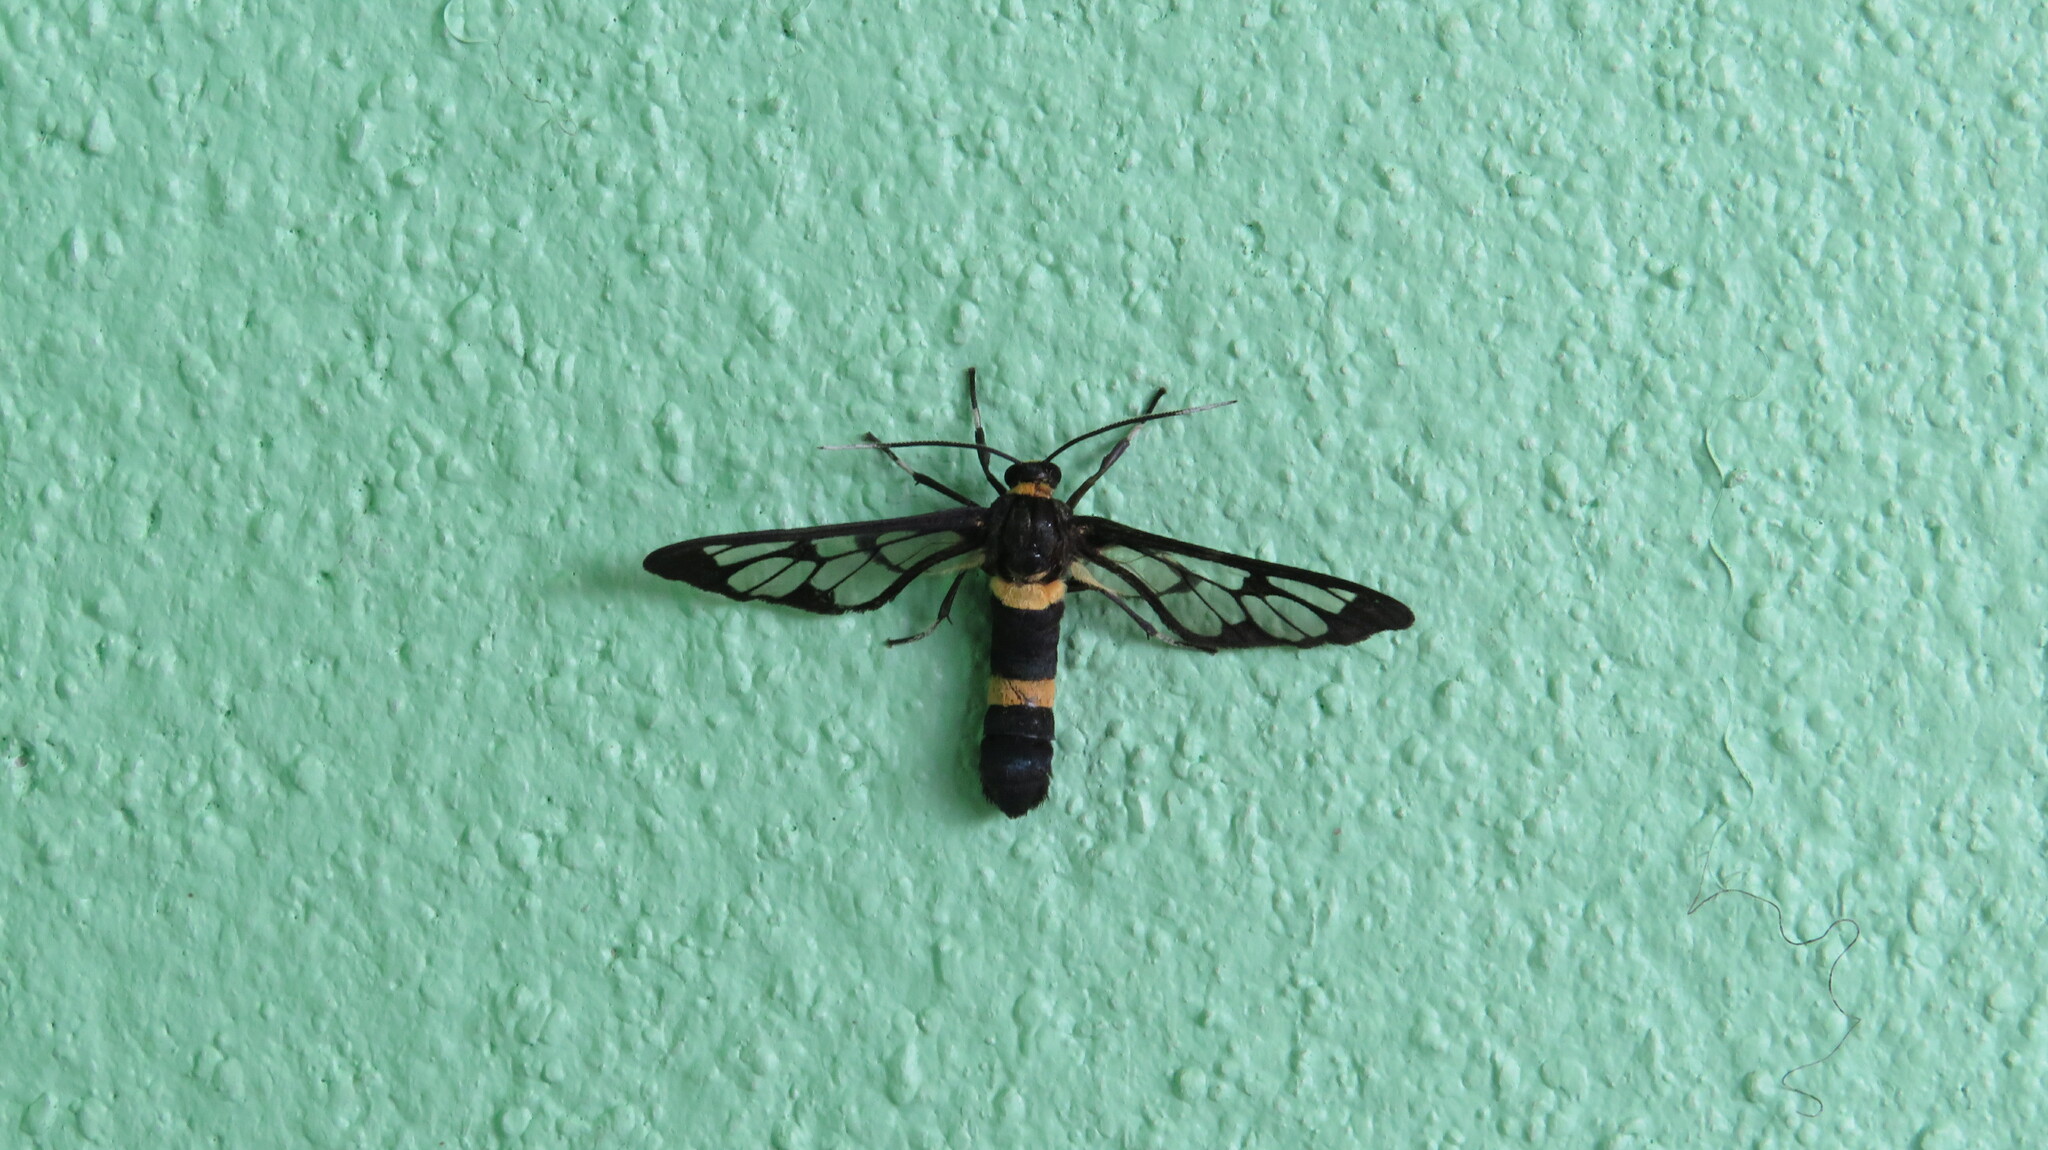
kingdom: Animalia
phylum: Arthropoda
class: Insecta
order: Lepidoptera
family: Erebidae
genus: Syntomoides
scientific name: Syntomoides imaon
